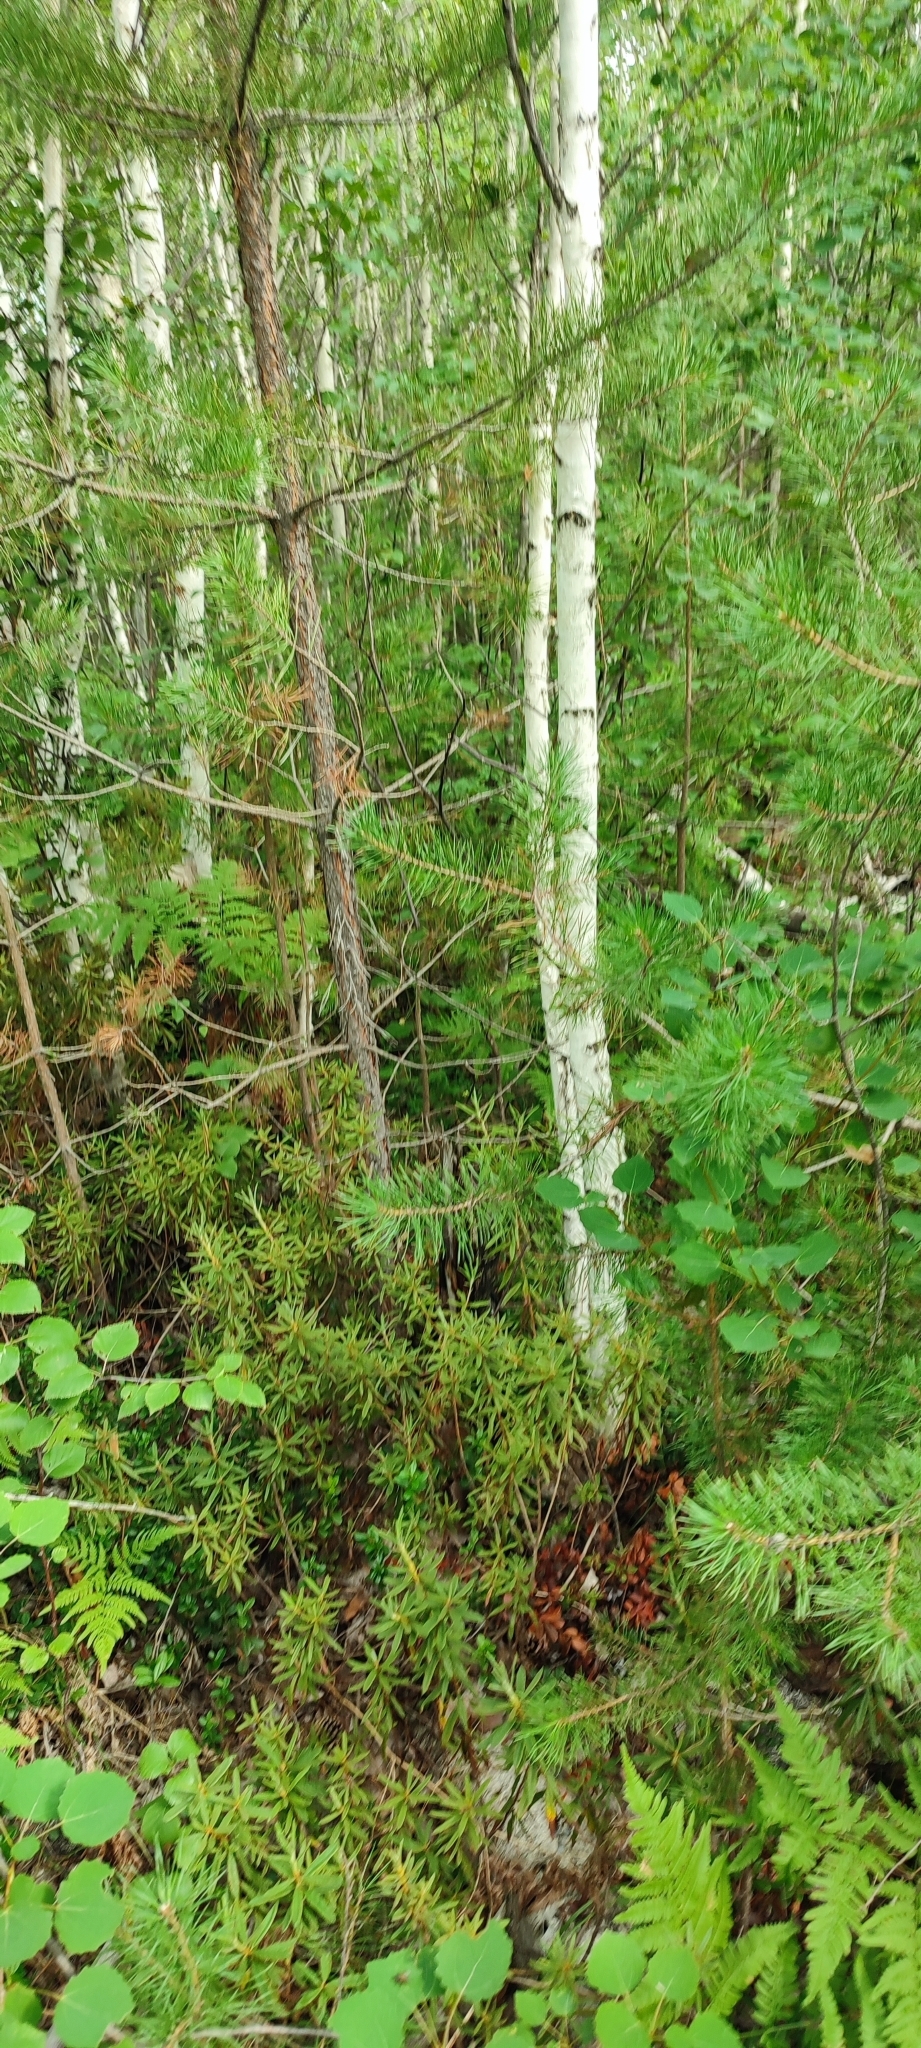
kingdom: Plantae
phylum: Tracheophyta
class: Magnoliopsida
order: Fagales
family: Betulaceae
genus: Betula
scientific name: Betula pubescens
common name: Downy birch
